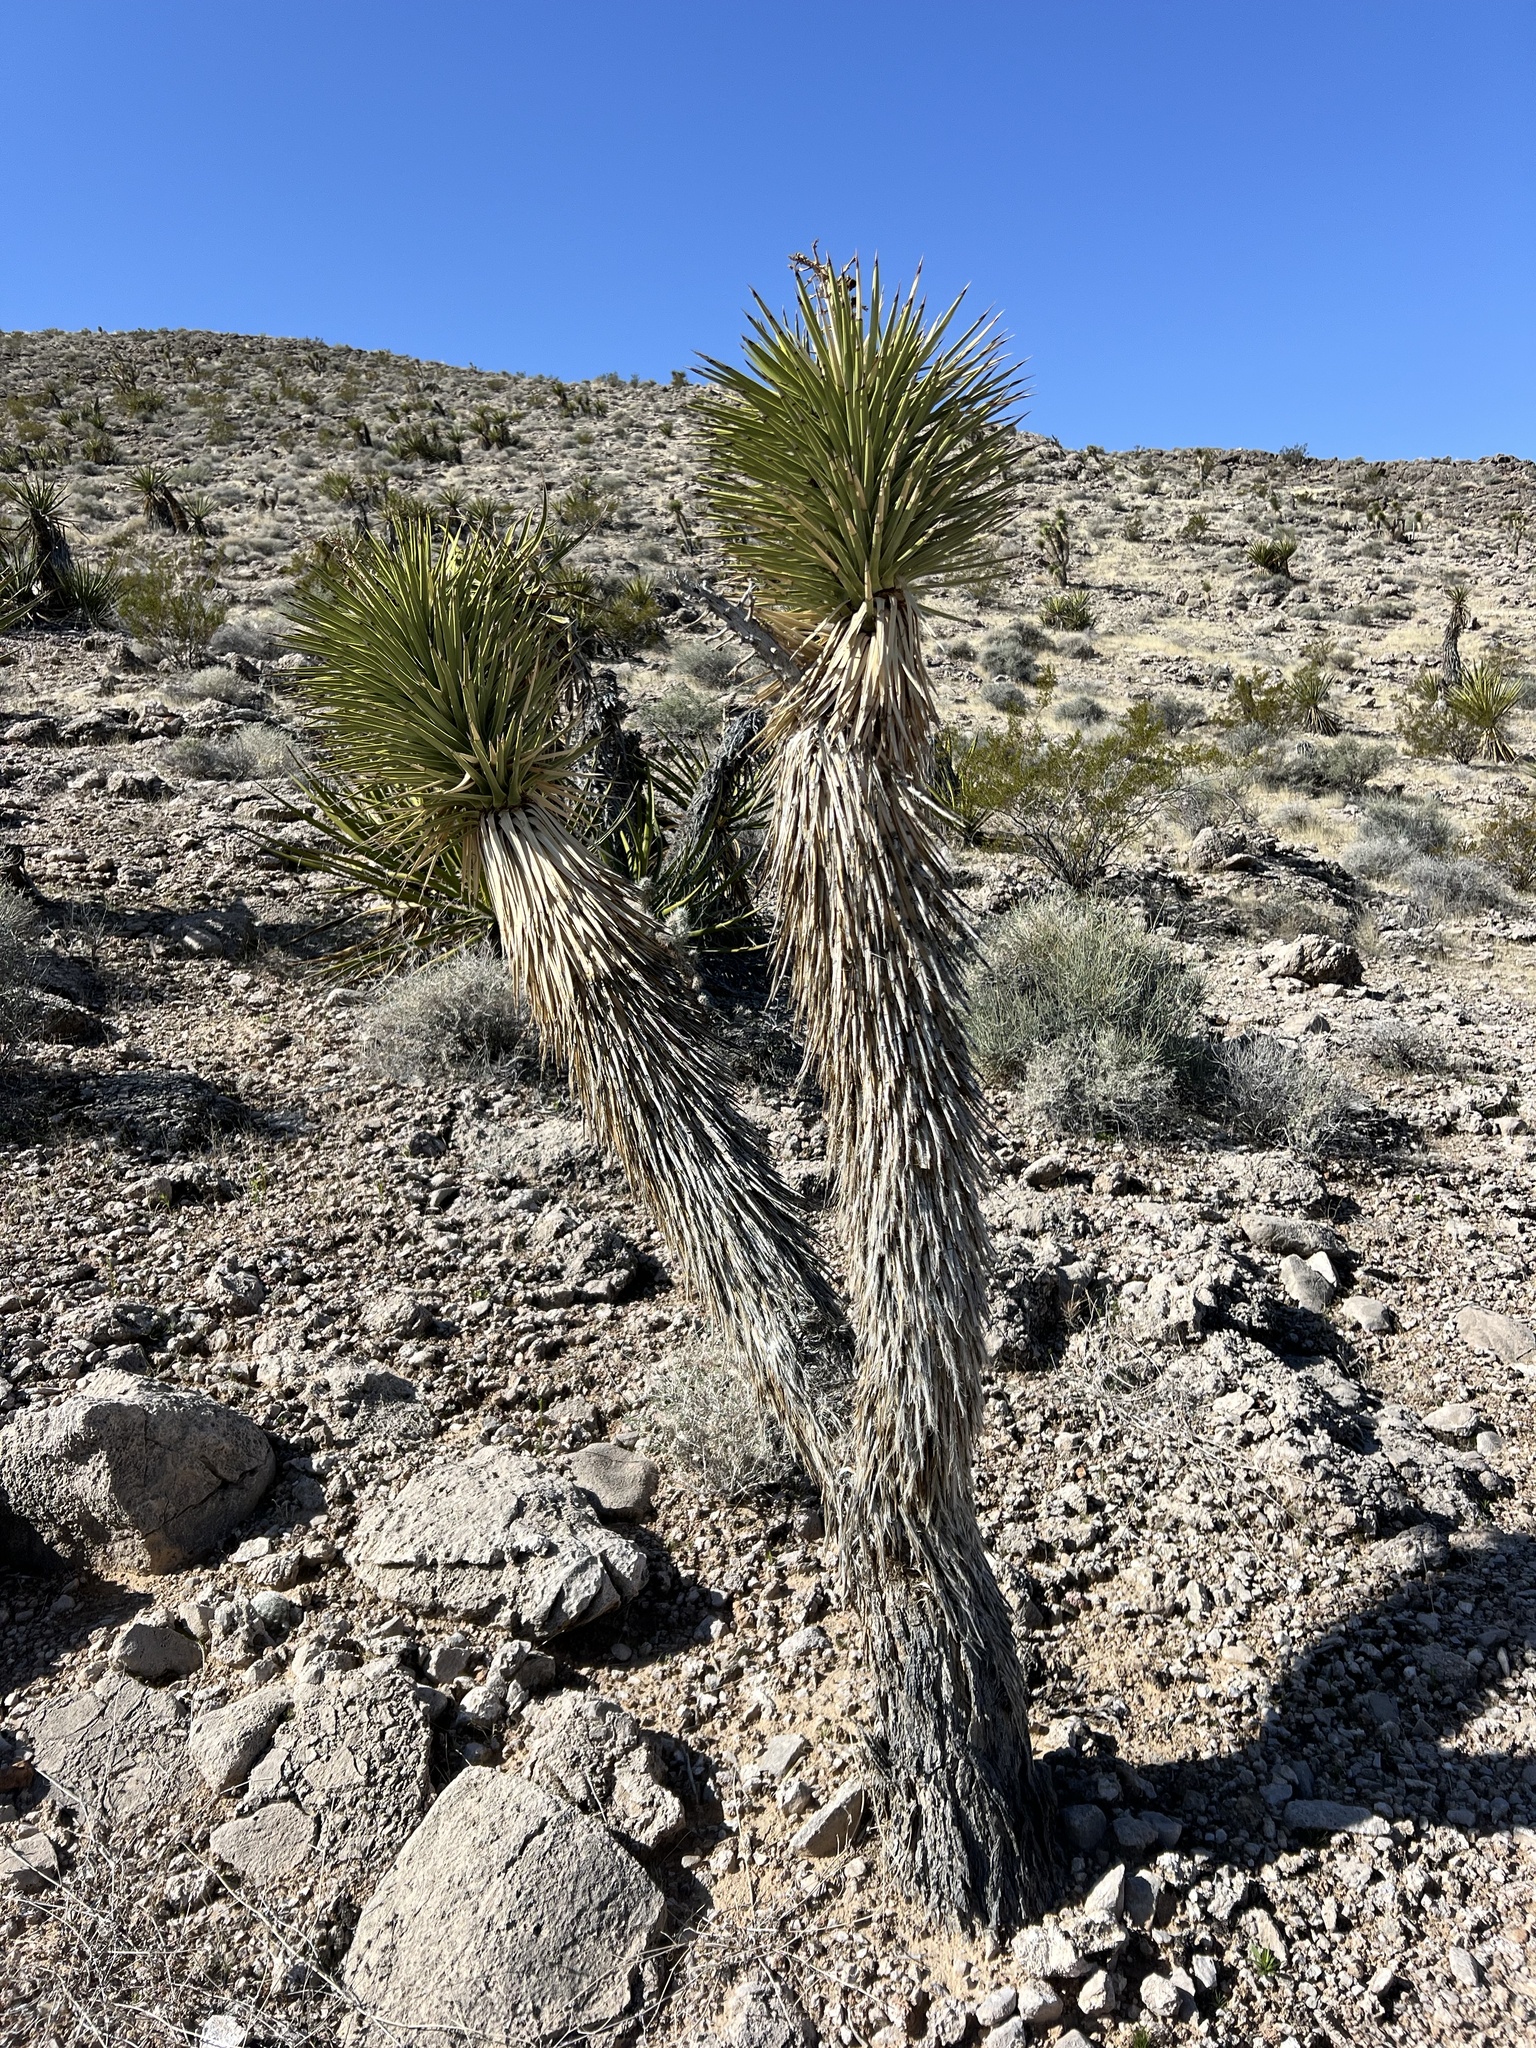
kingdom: Plantae
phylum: Tracheophyta
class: Liliopsida
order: Asparagales
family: Asparagaceae
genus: Yucca
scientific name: Yucca brevifolia
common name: Joshua tree
